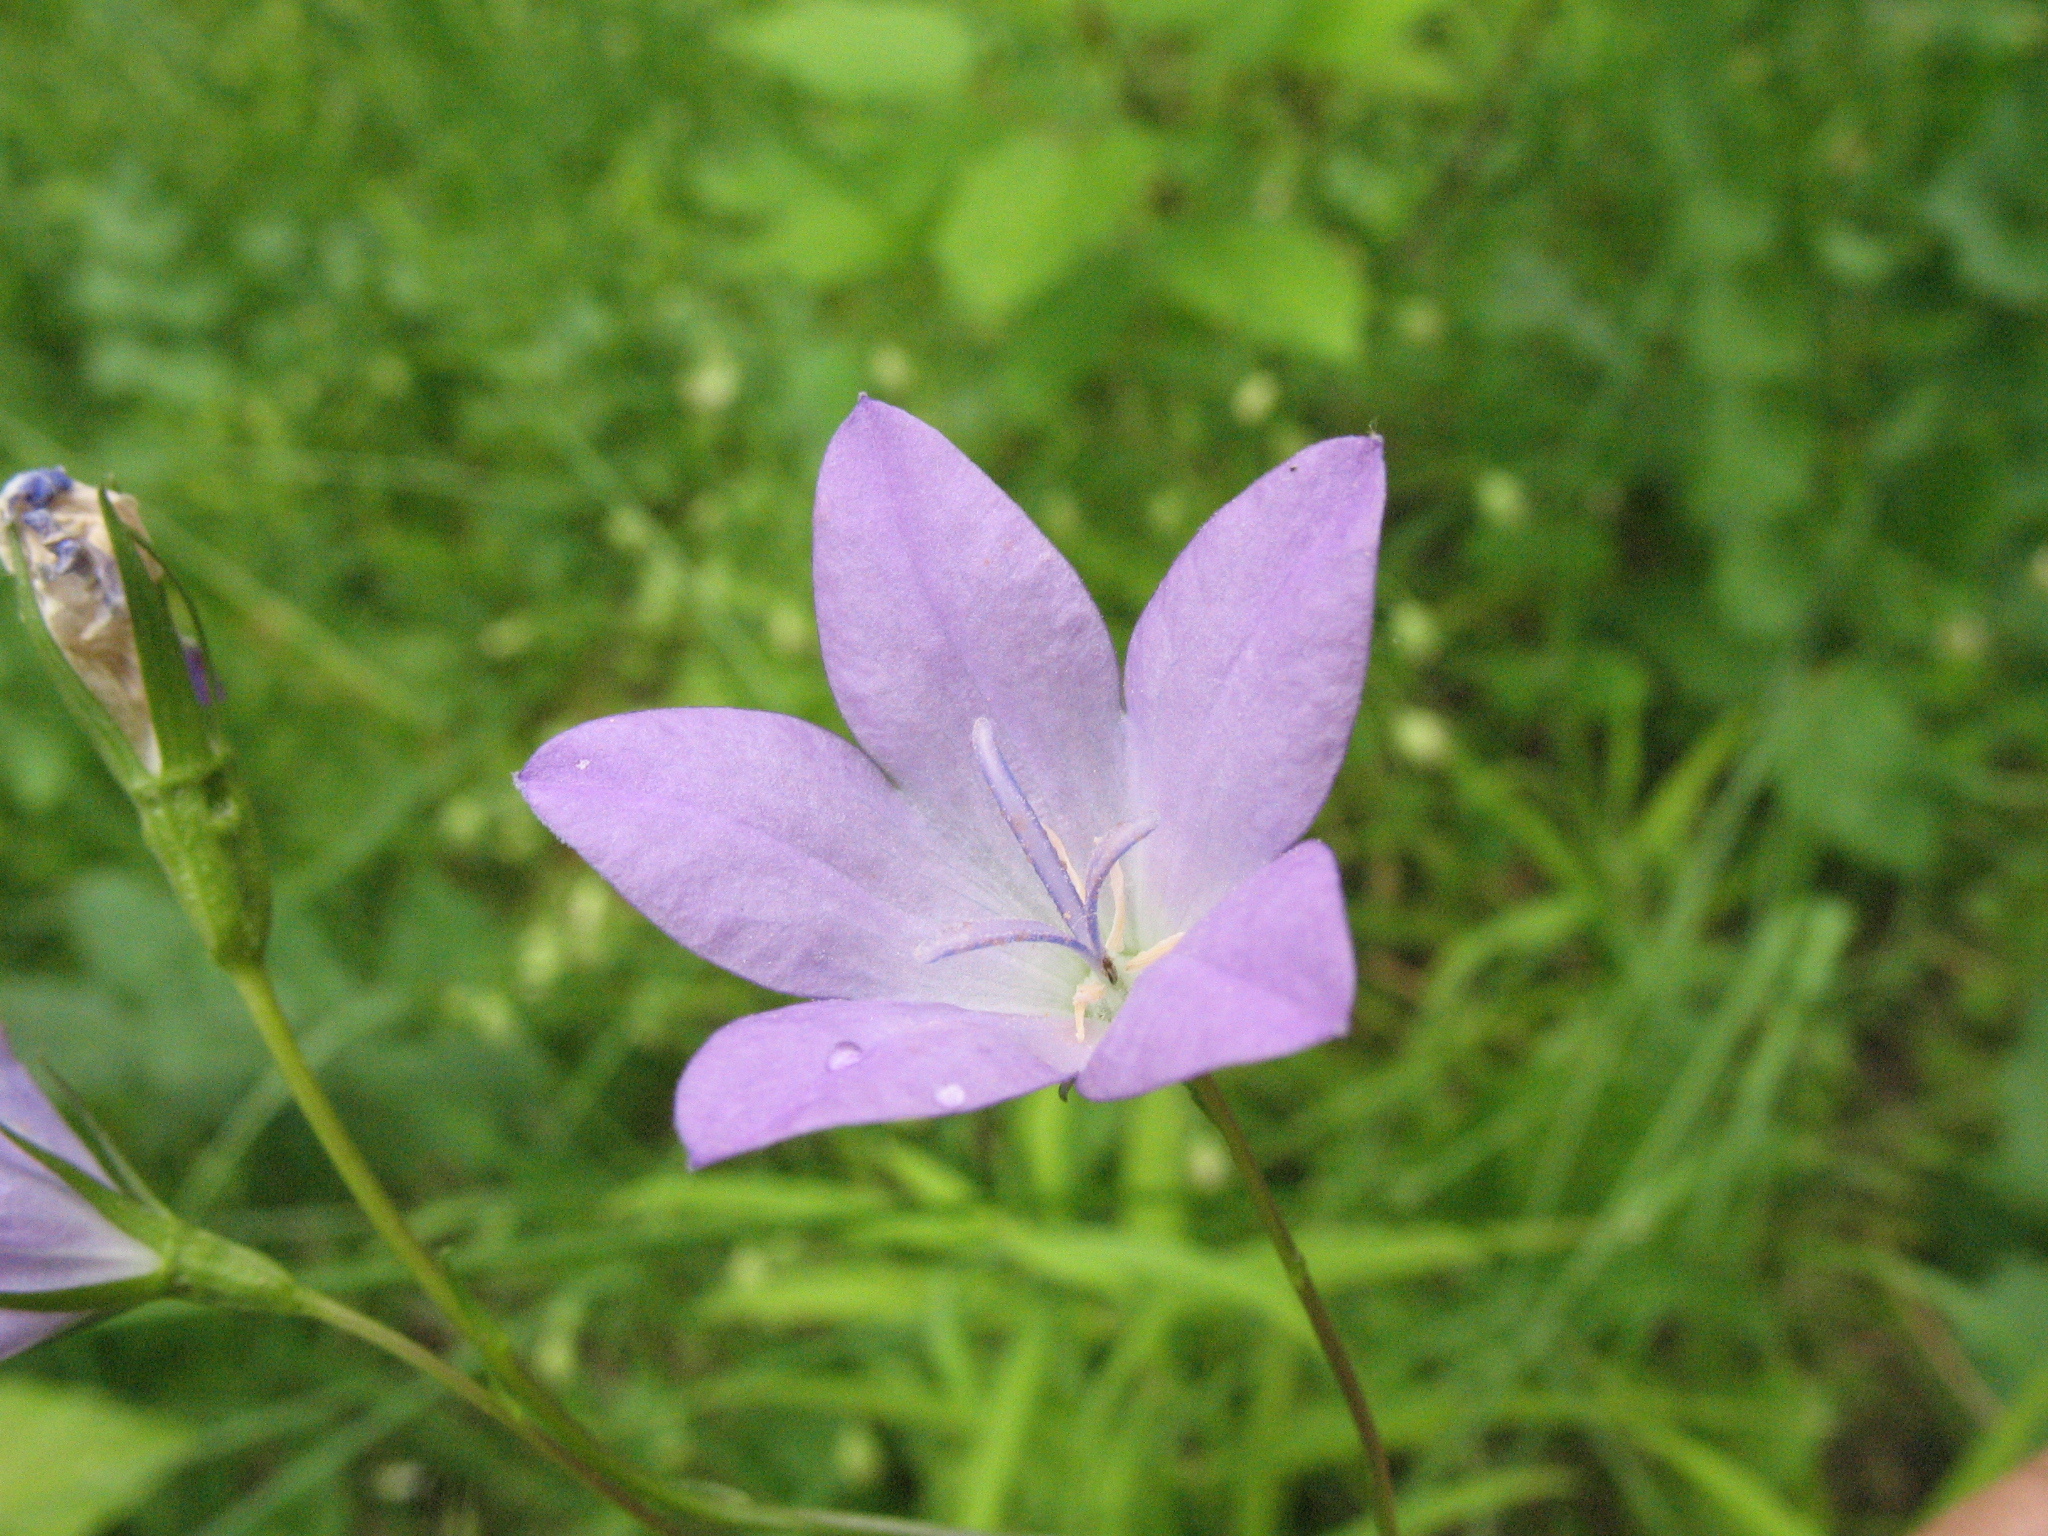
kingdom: Plantae
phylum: Tracheophyta
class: Magnoliopsida
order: Asterales
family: Campanulaceae
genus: Campanula
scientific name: Campanula stevenii
